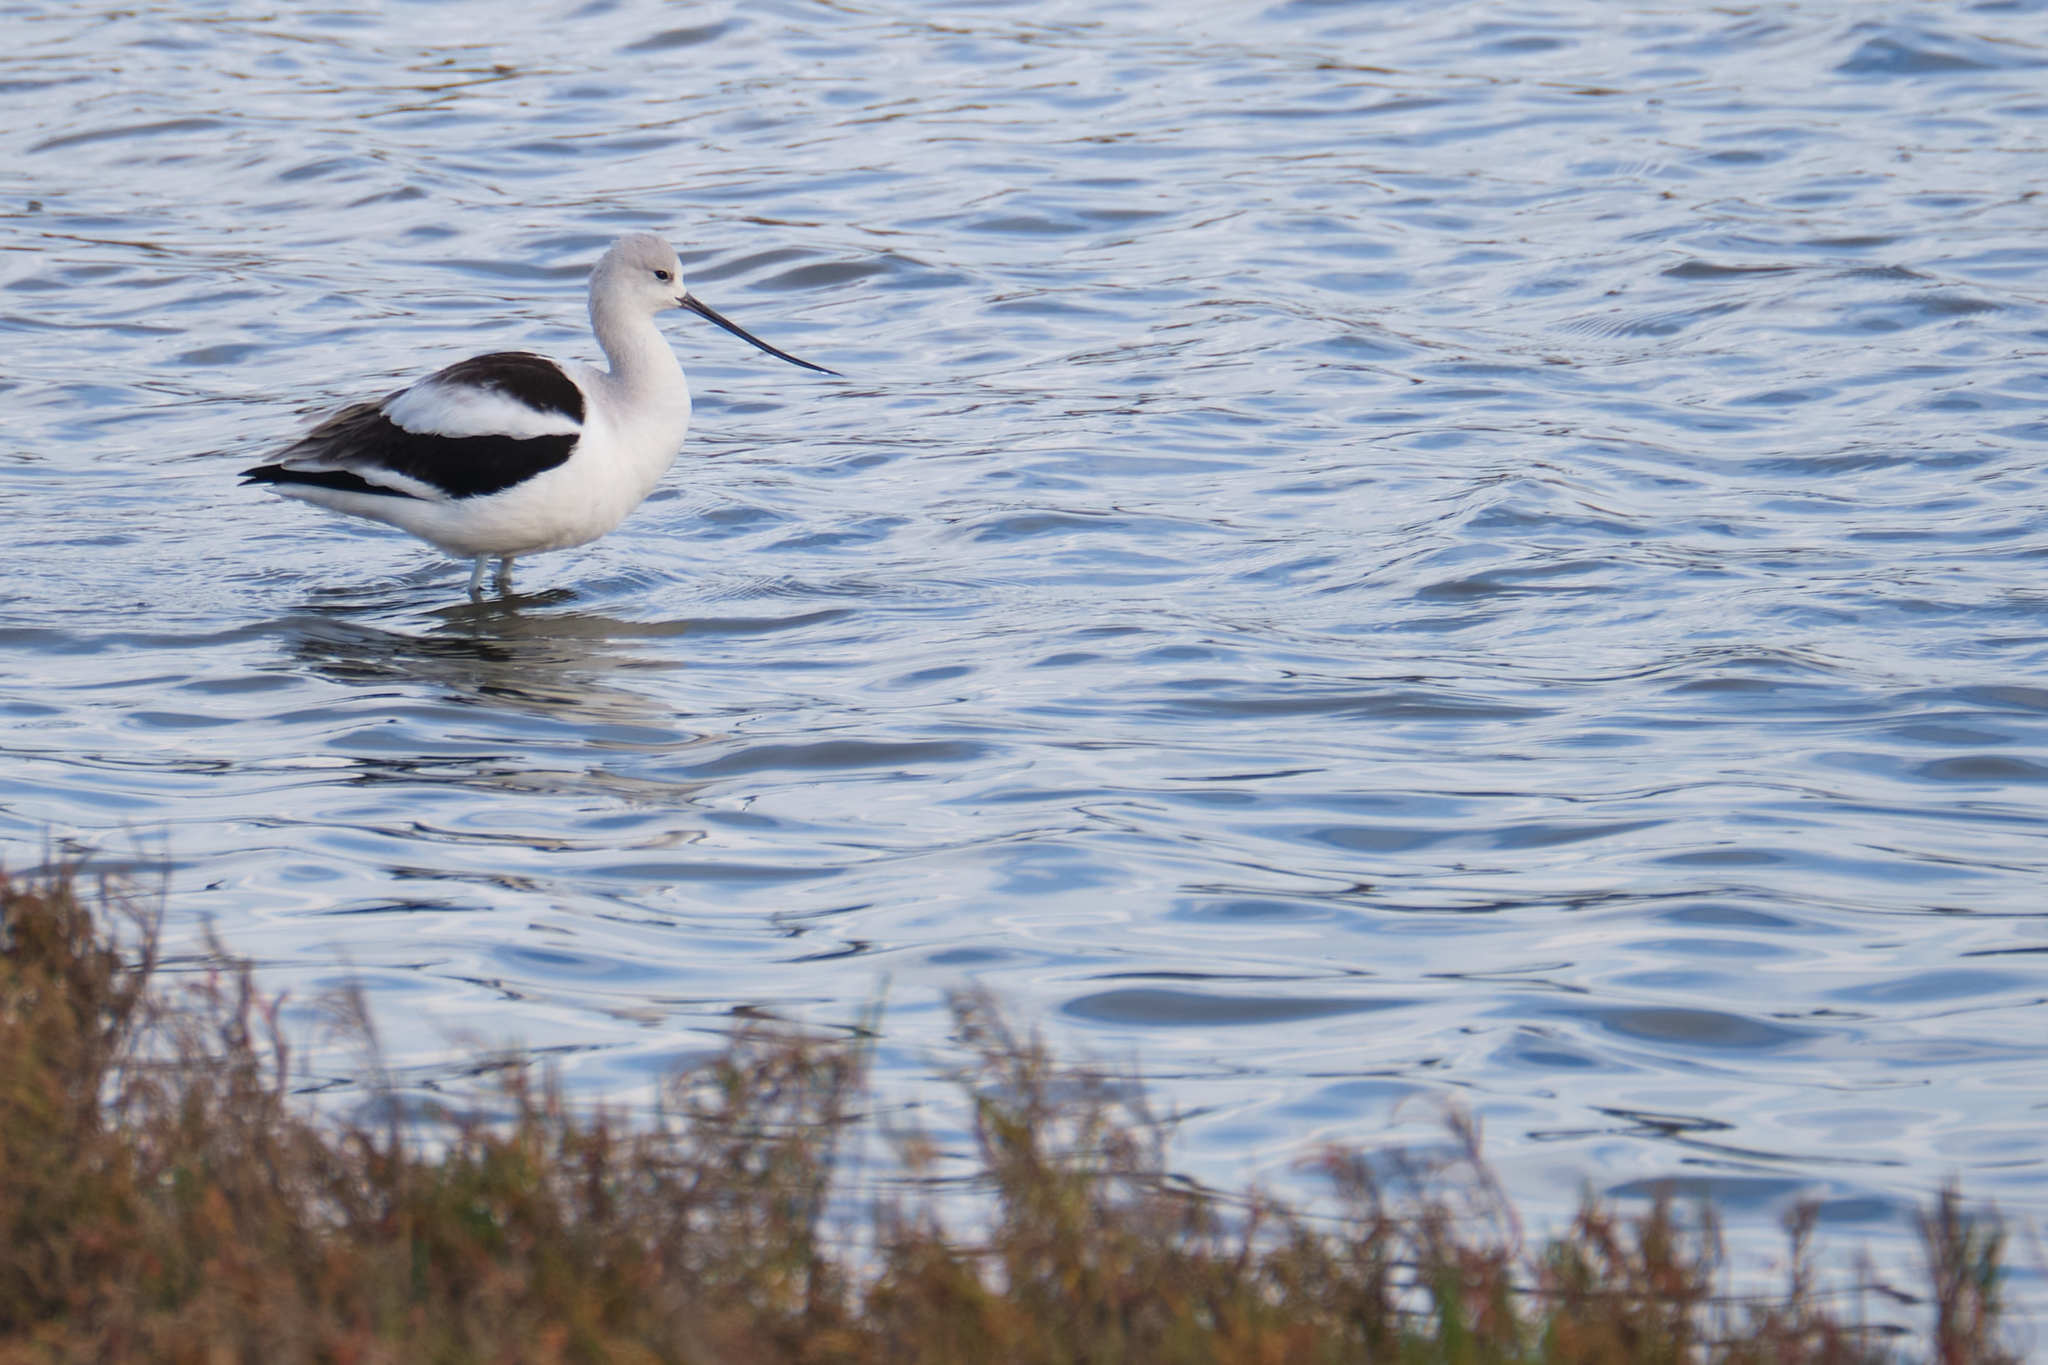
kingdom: Animalia
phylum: Chordata
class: Aves
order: Charadriiformes
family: Recurvirostridae
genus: Recurvirostra
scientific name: Recurvirostra americana
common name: American avocet
